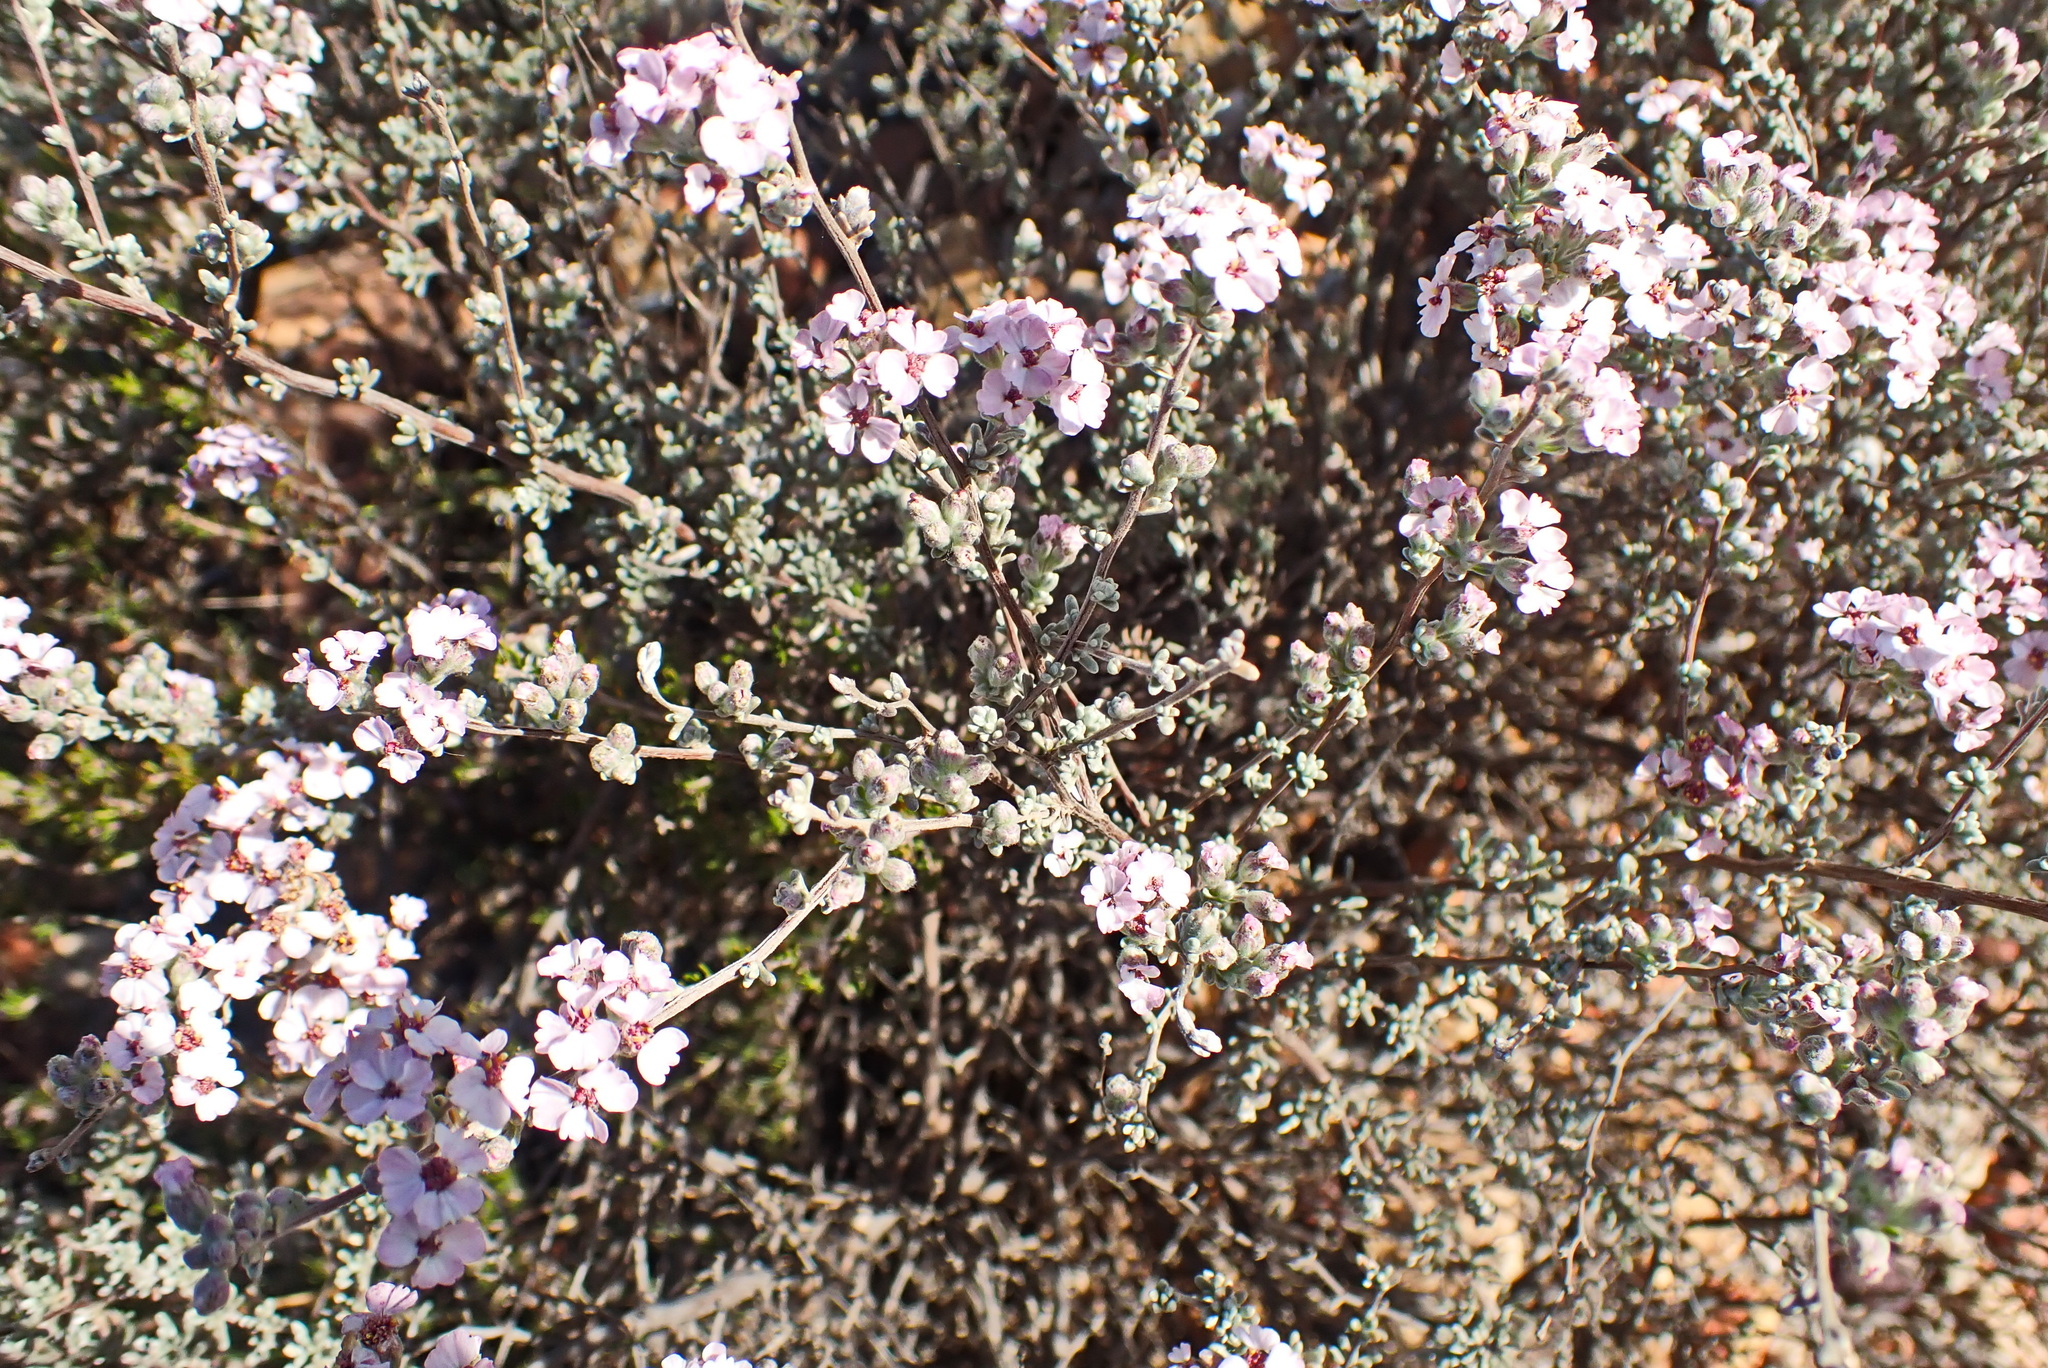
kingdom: Plantae
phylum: Tracheophyta
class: Magnoliopsida
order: Asterales
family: Asteraceae
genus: Eriocephalus
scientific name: Eriocephalus africanus
